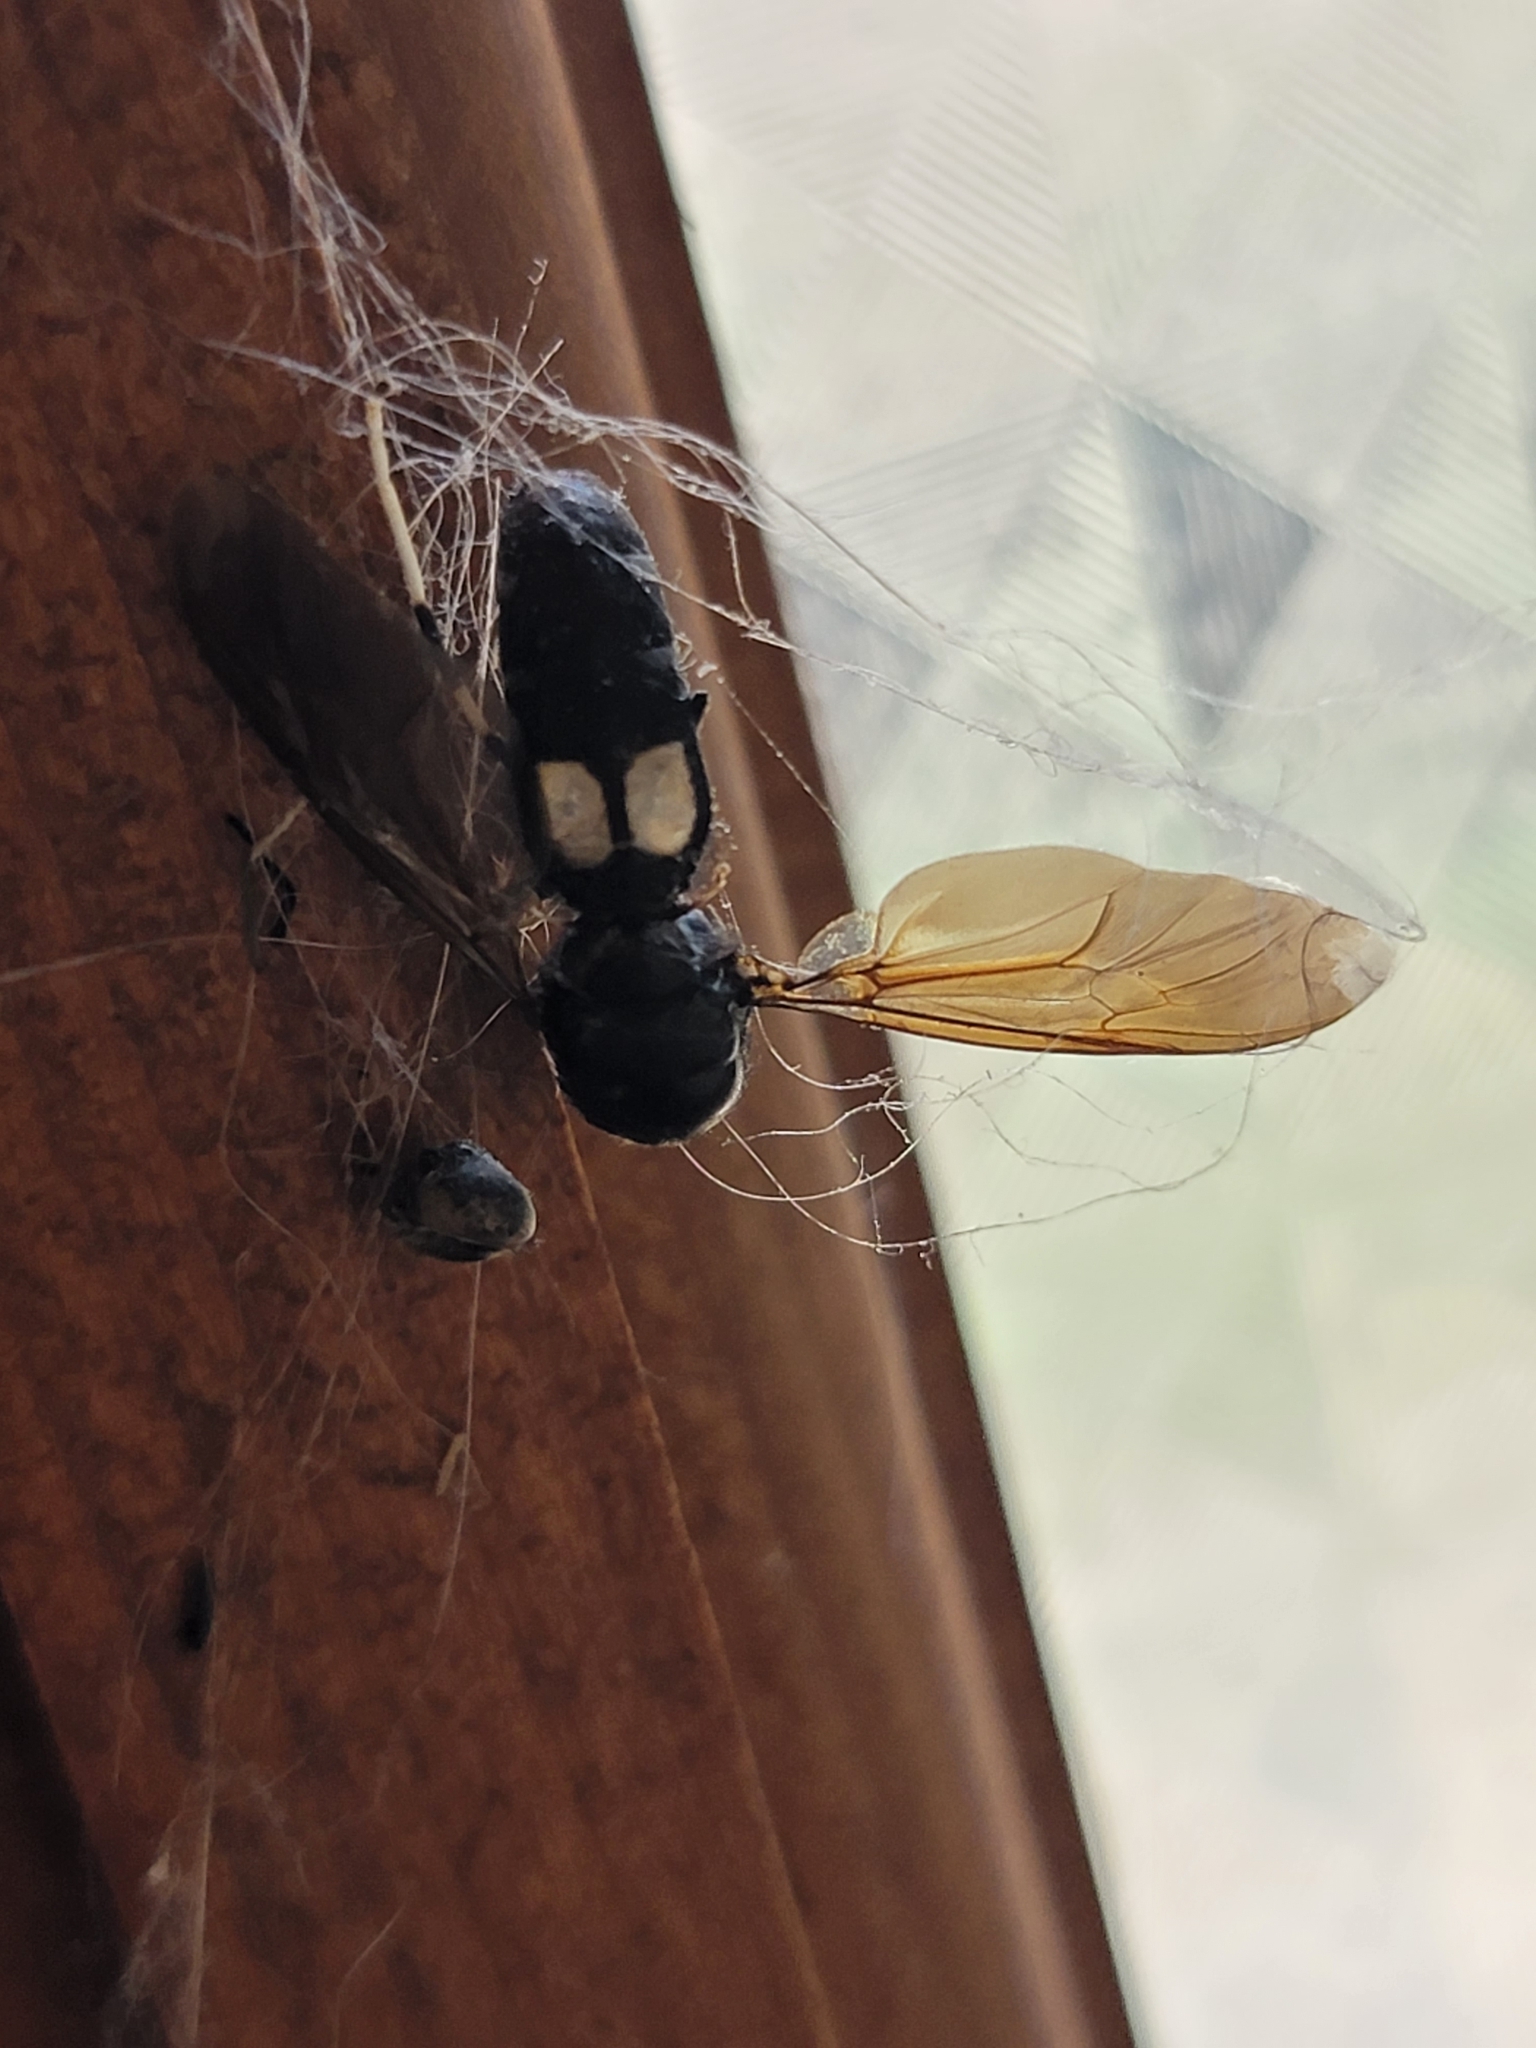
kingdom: Animalia
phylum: Arthropoda
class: Insecta
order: Diptera
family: Stratiomyidae
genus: Hermetia
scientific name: Hermetia illucens
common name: Black soldier fly
